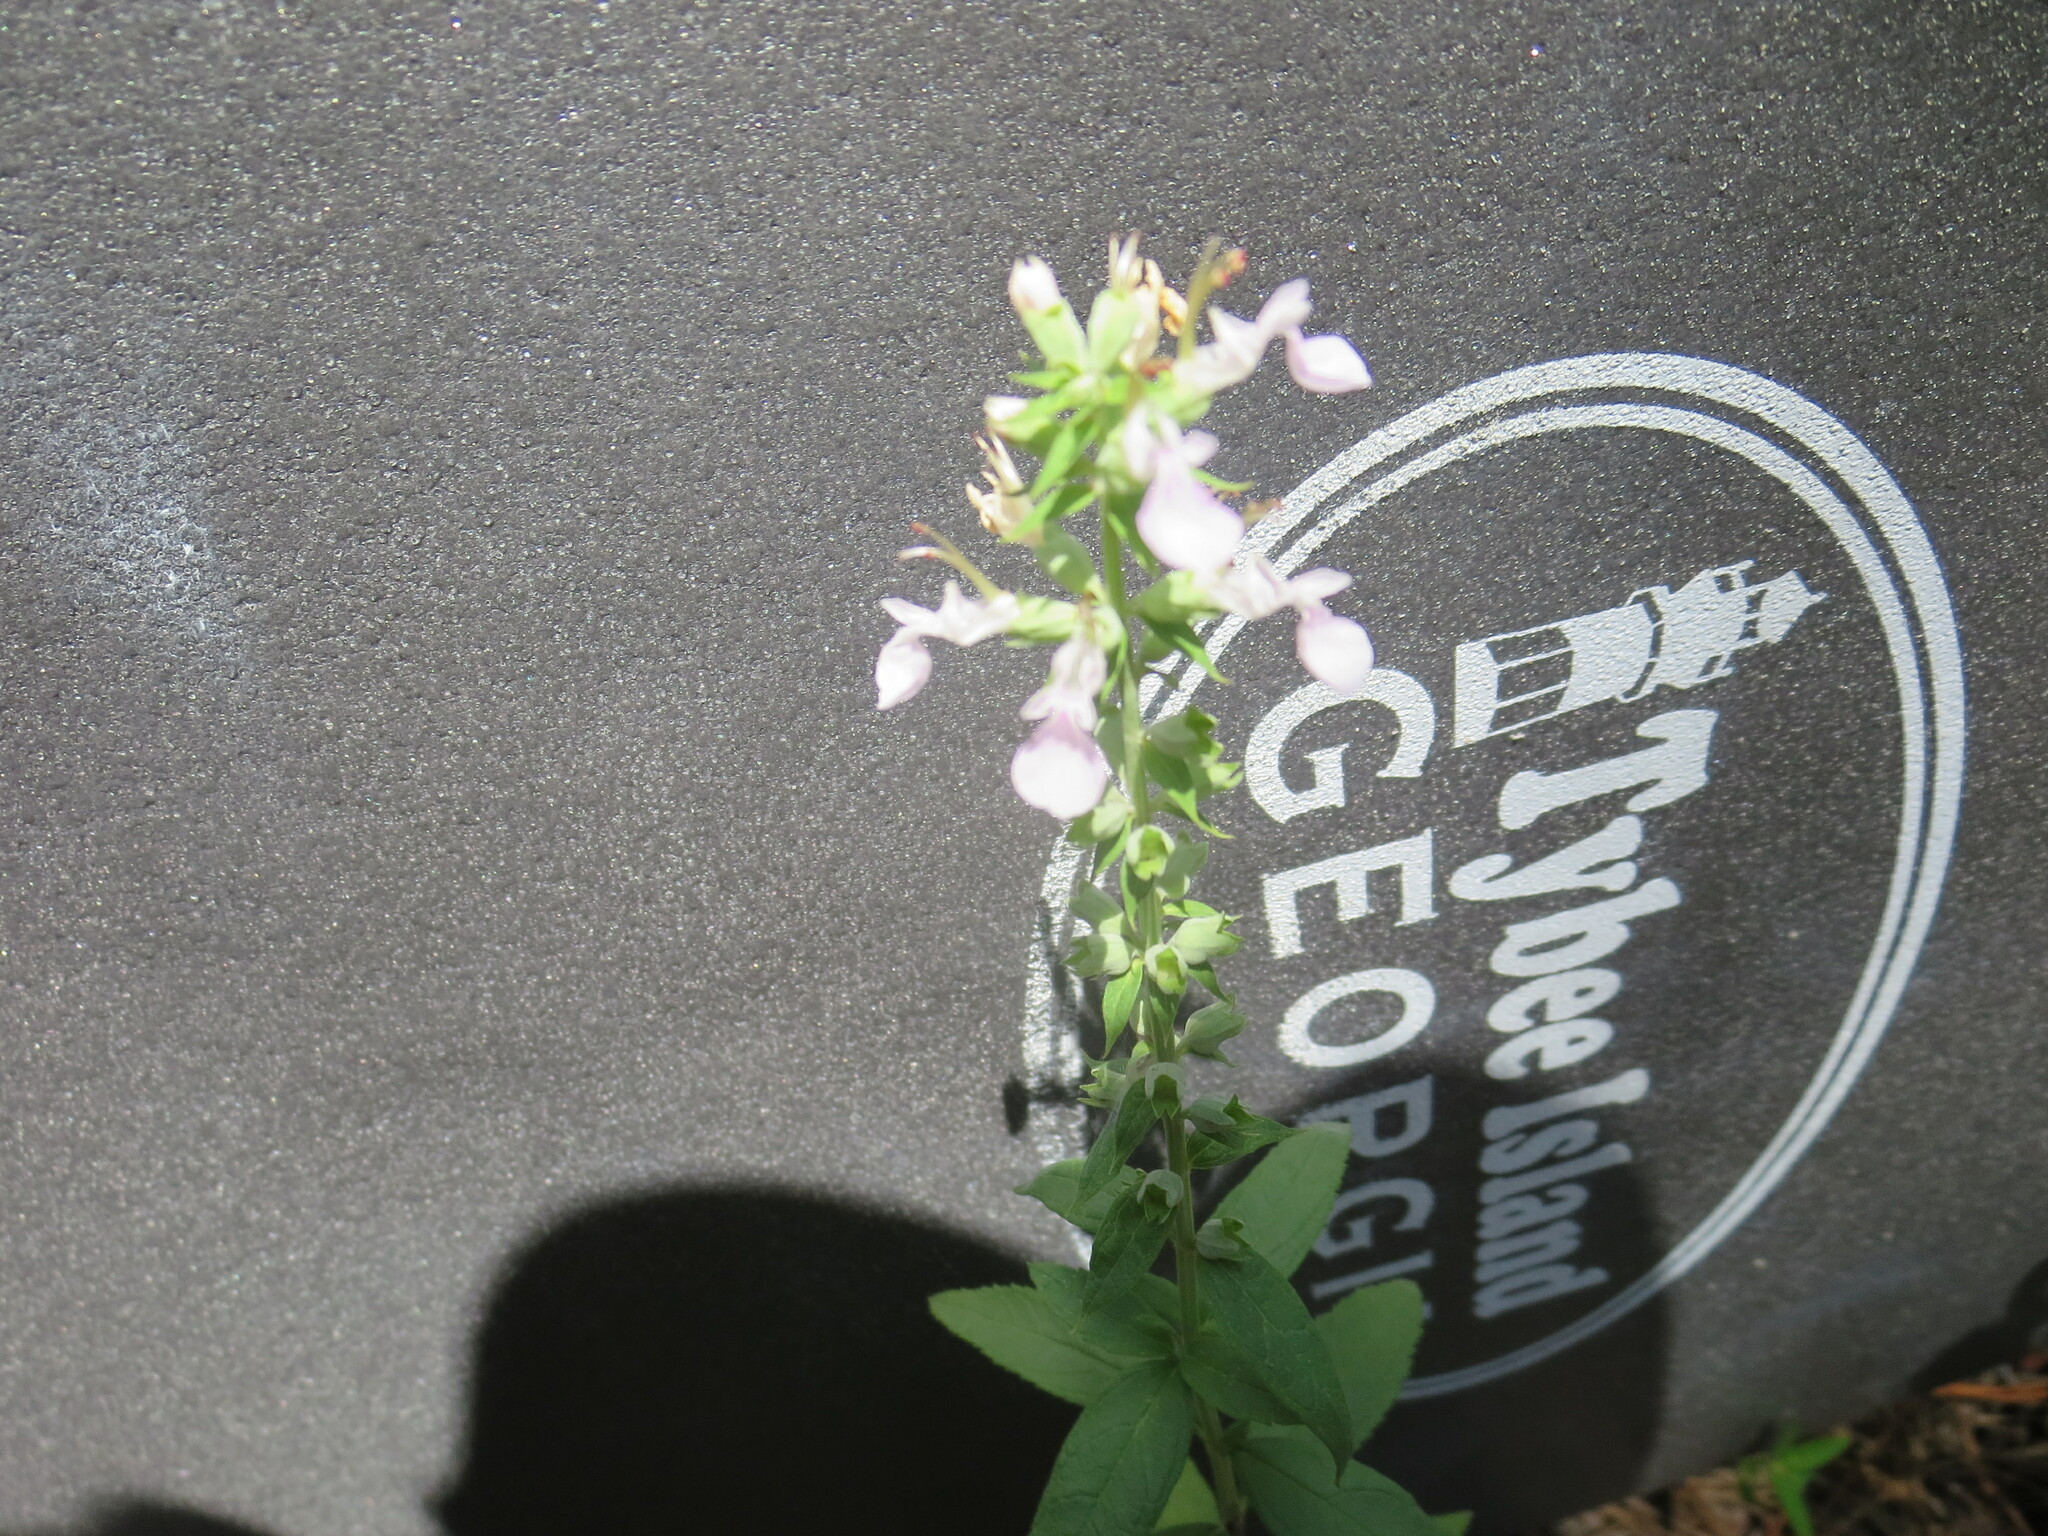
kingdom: Plantae
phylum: Tracheophyta
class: Magnoliopsida
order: Lamiales
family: Lamiaceae
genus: Teucrium
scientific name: Teucrium canadense
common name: American germander
